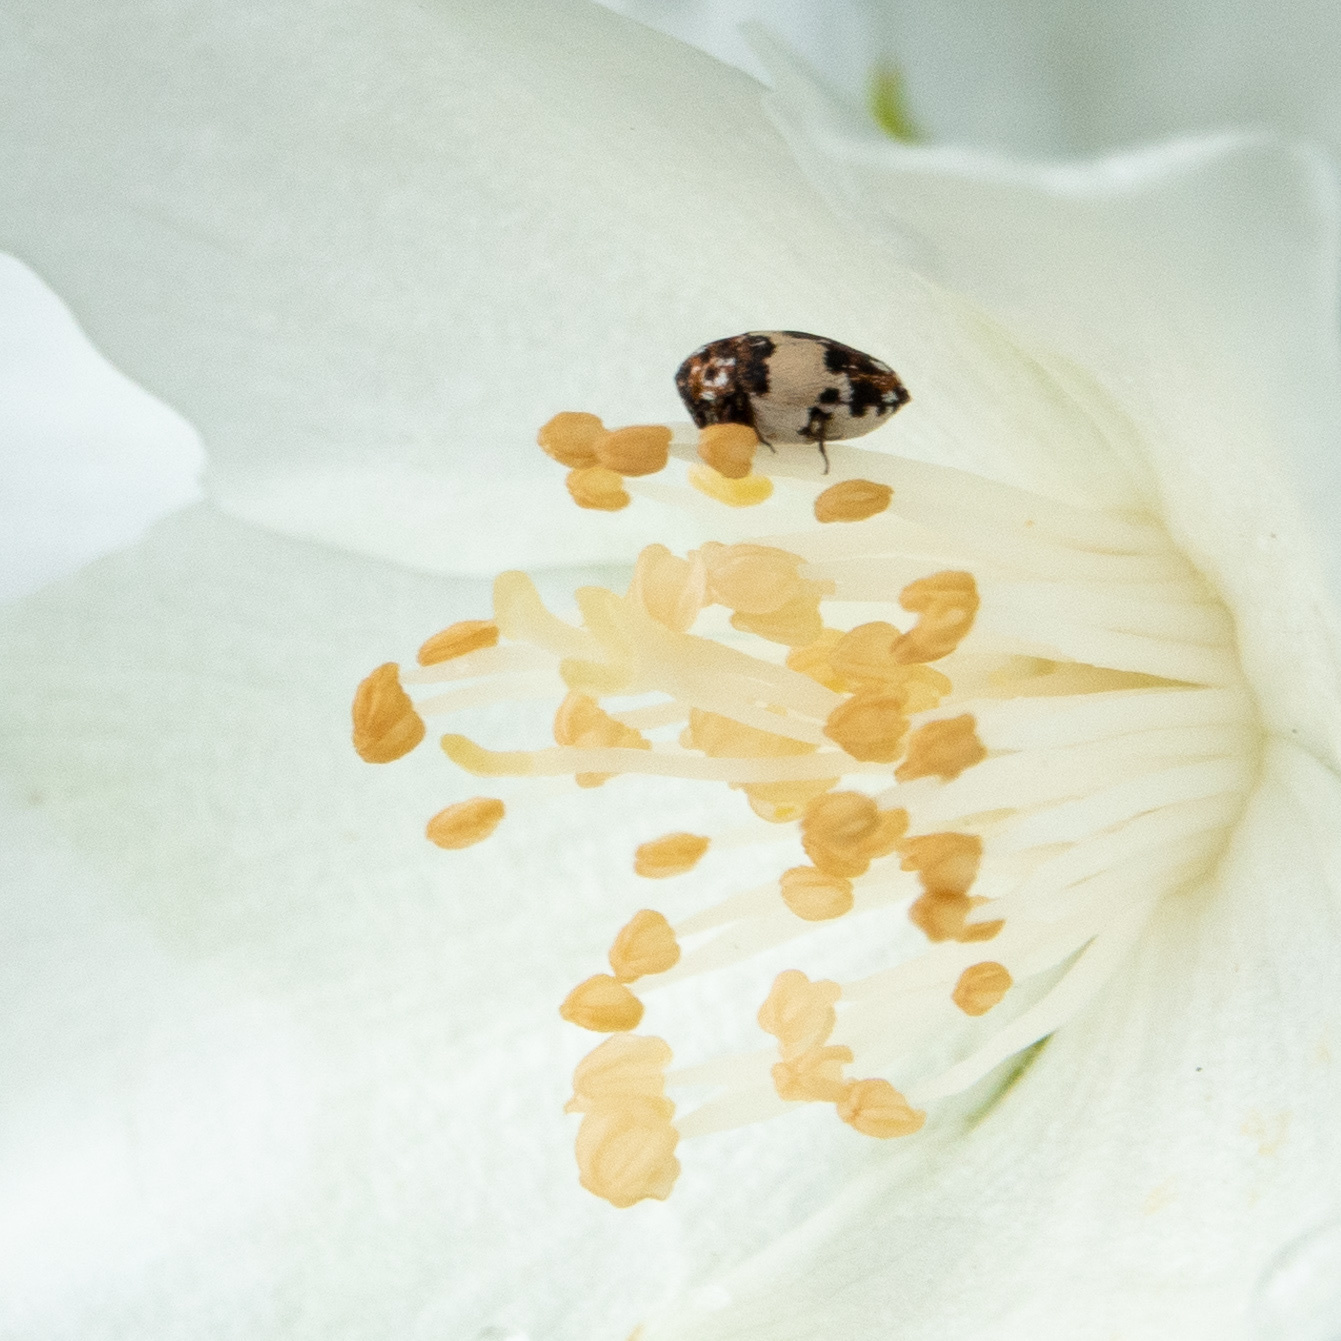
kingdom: Animalia
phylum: Arthropoda
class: Insecta
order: Coleoptera
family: Dermestidae
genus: Anthrenus
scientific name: Anthrenus isabellinus
